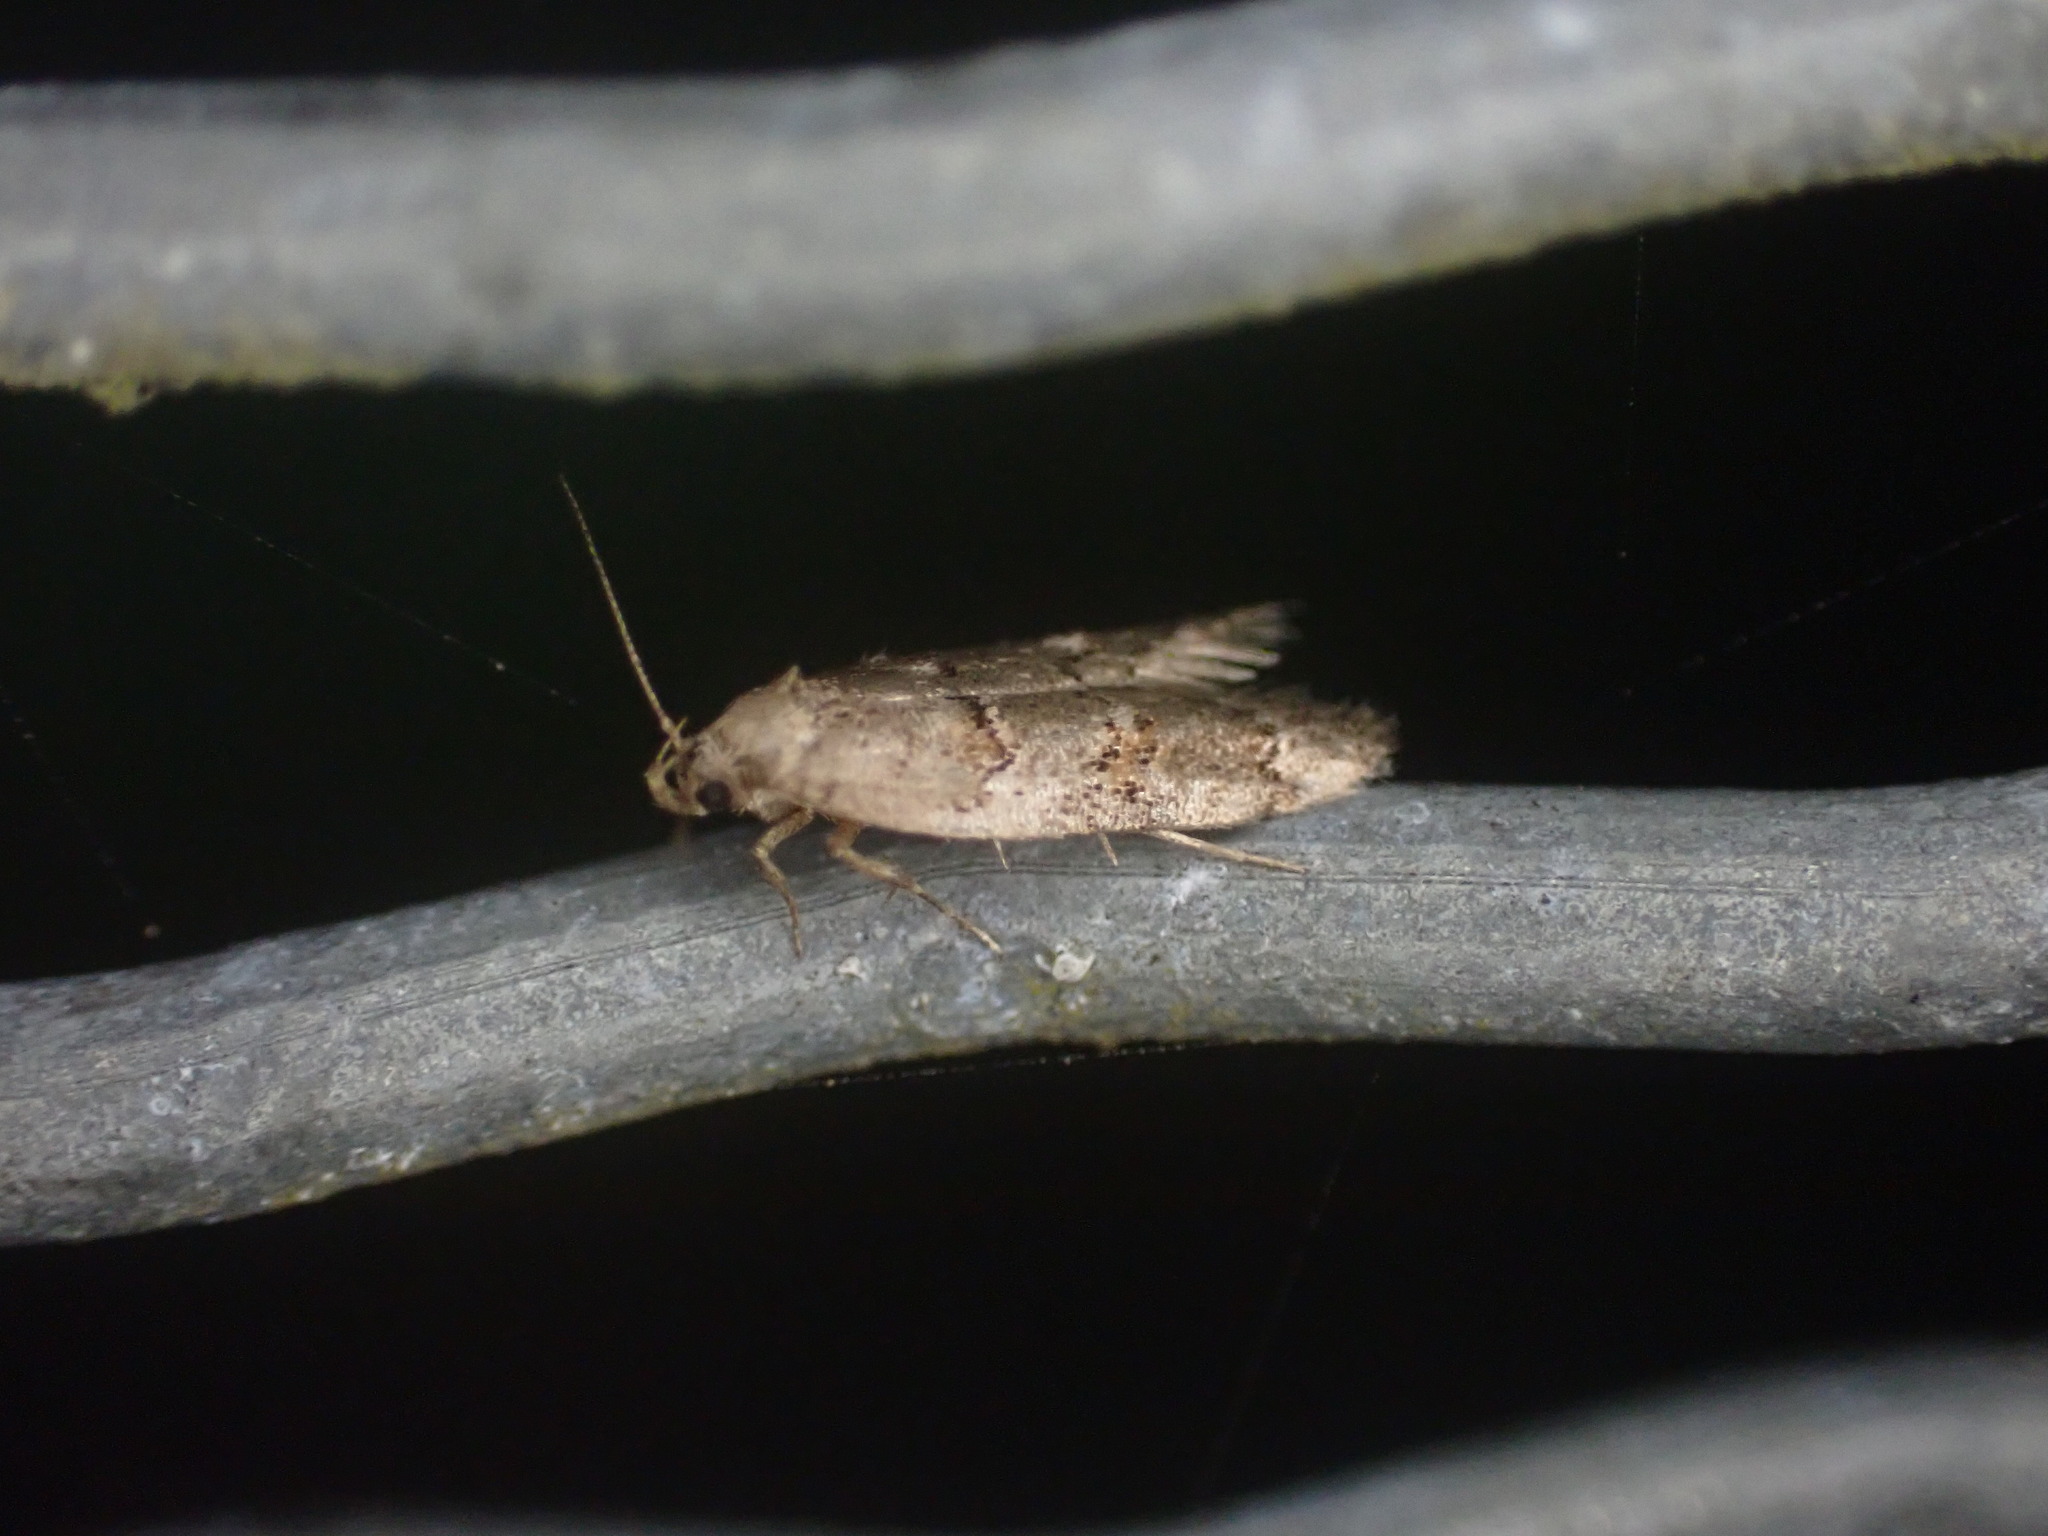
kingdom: Animalia
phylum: Arthropoda
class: Insecta
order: Lepidoptera
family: Oecophoridae
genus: Trachypepla
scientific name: Trachypepla galaxias
